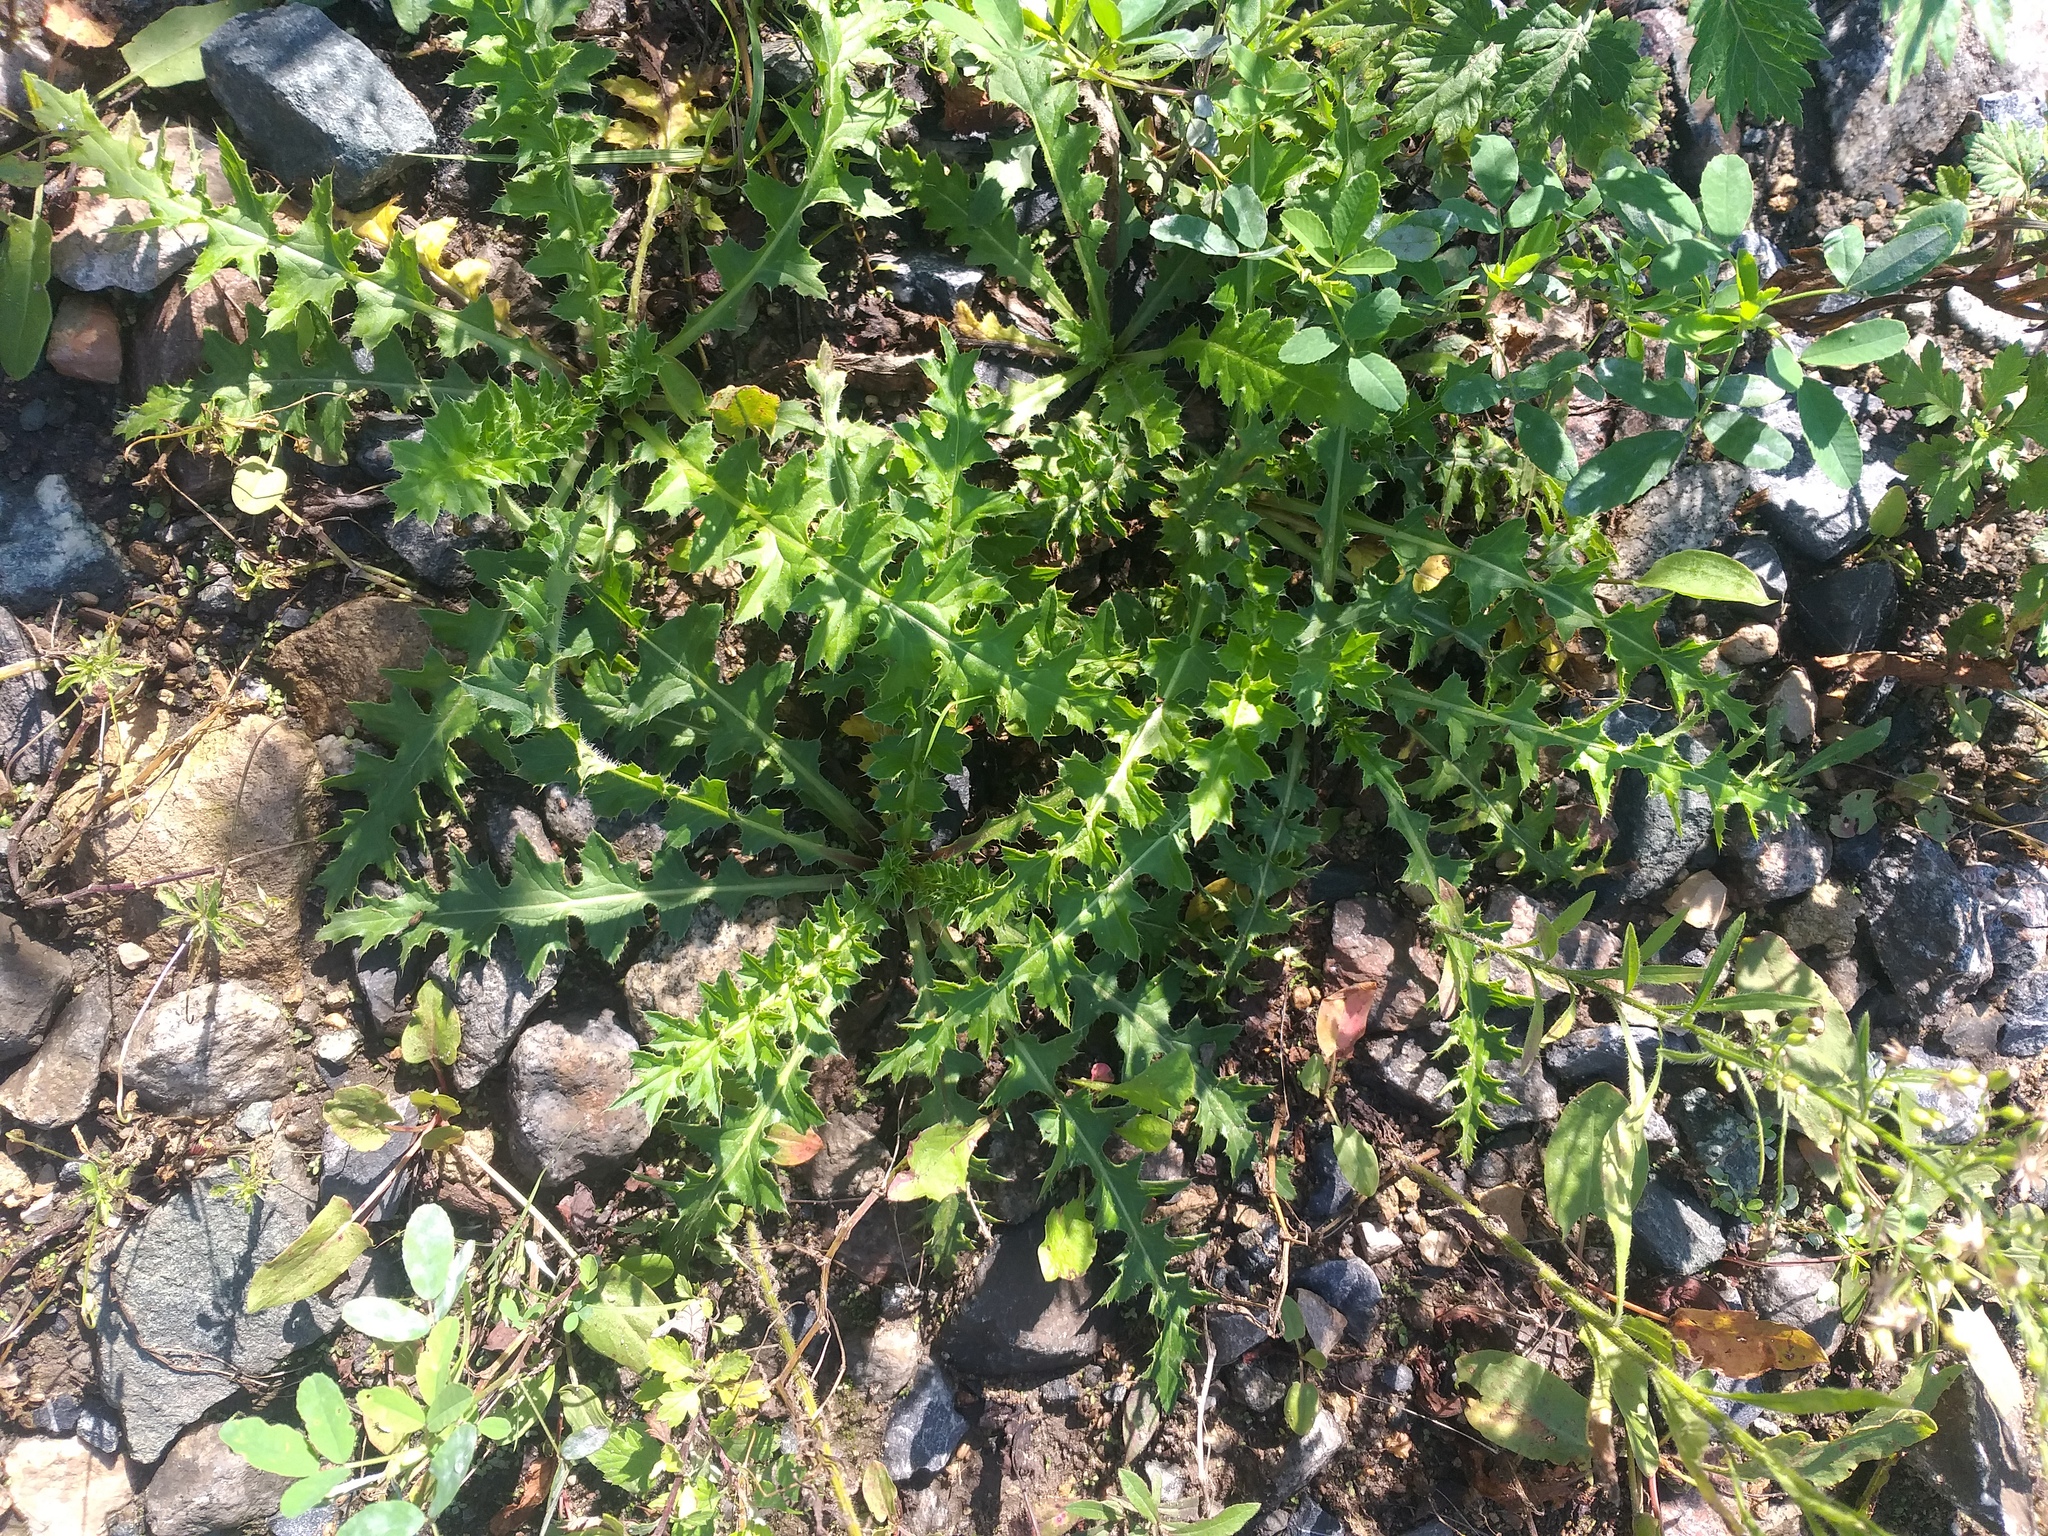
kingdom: Plantae
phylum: Tracheophyta
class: Magnoliopsida
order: Asterales
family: Asteraceae
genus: Carduus
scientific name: Carduus acanthoides
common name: Plumeless thistle
